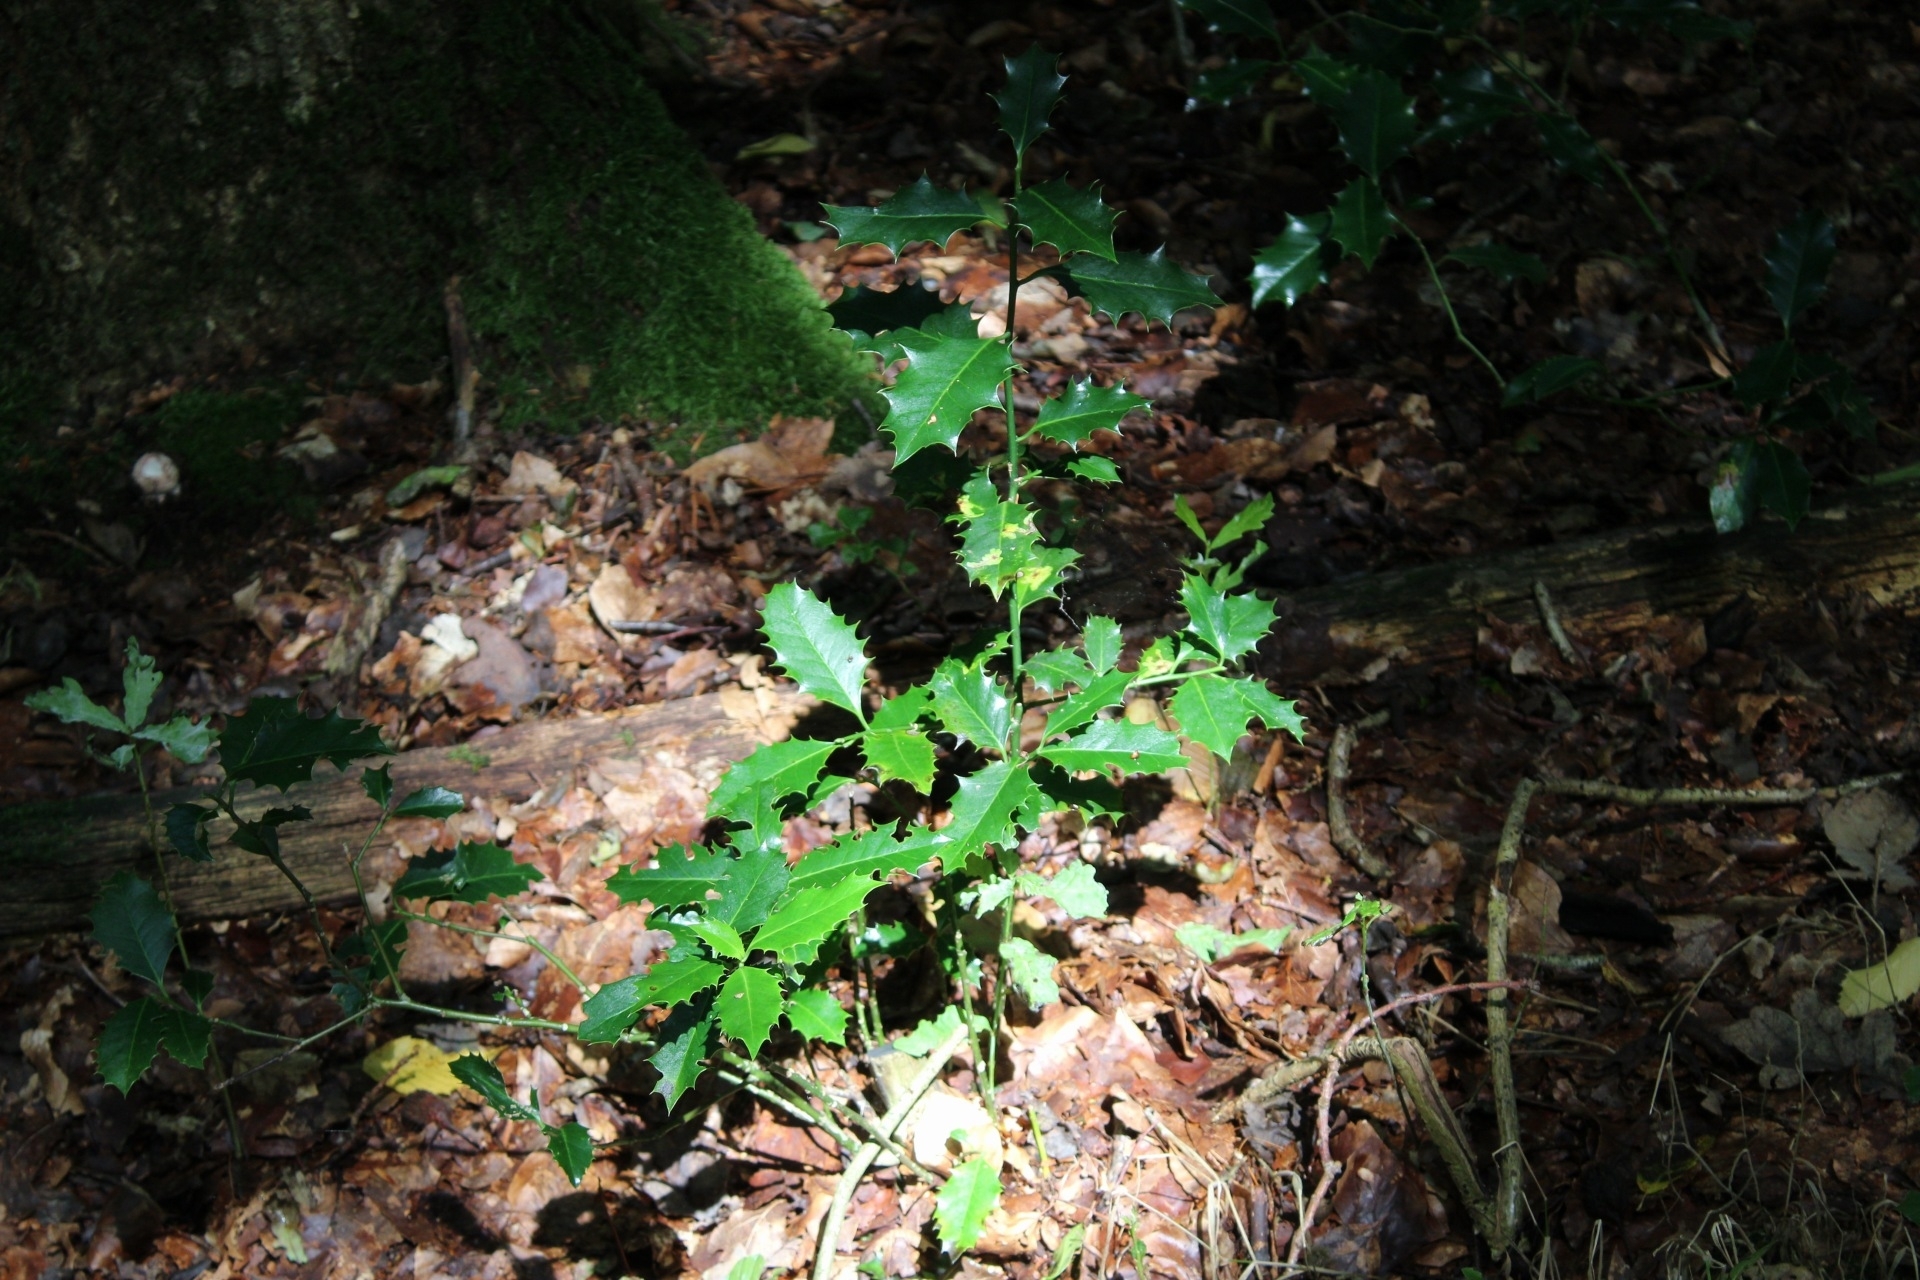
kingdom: Plantae
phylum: Tracheophyta
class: Magnoliopsida
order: Aquifoliales
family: Aquifoliaceae
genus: Ilex
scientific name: Ilex aquifolium
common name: English holly
